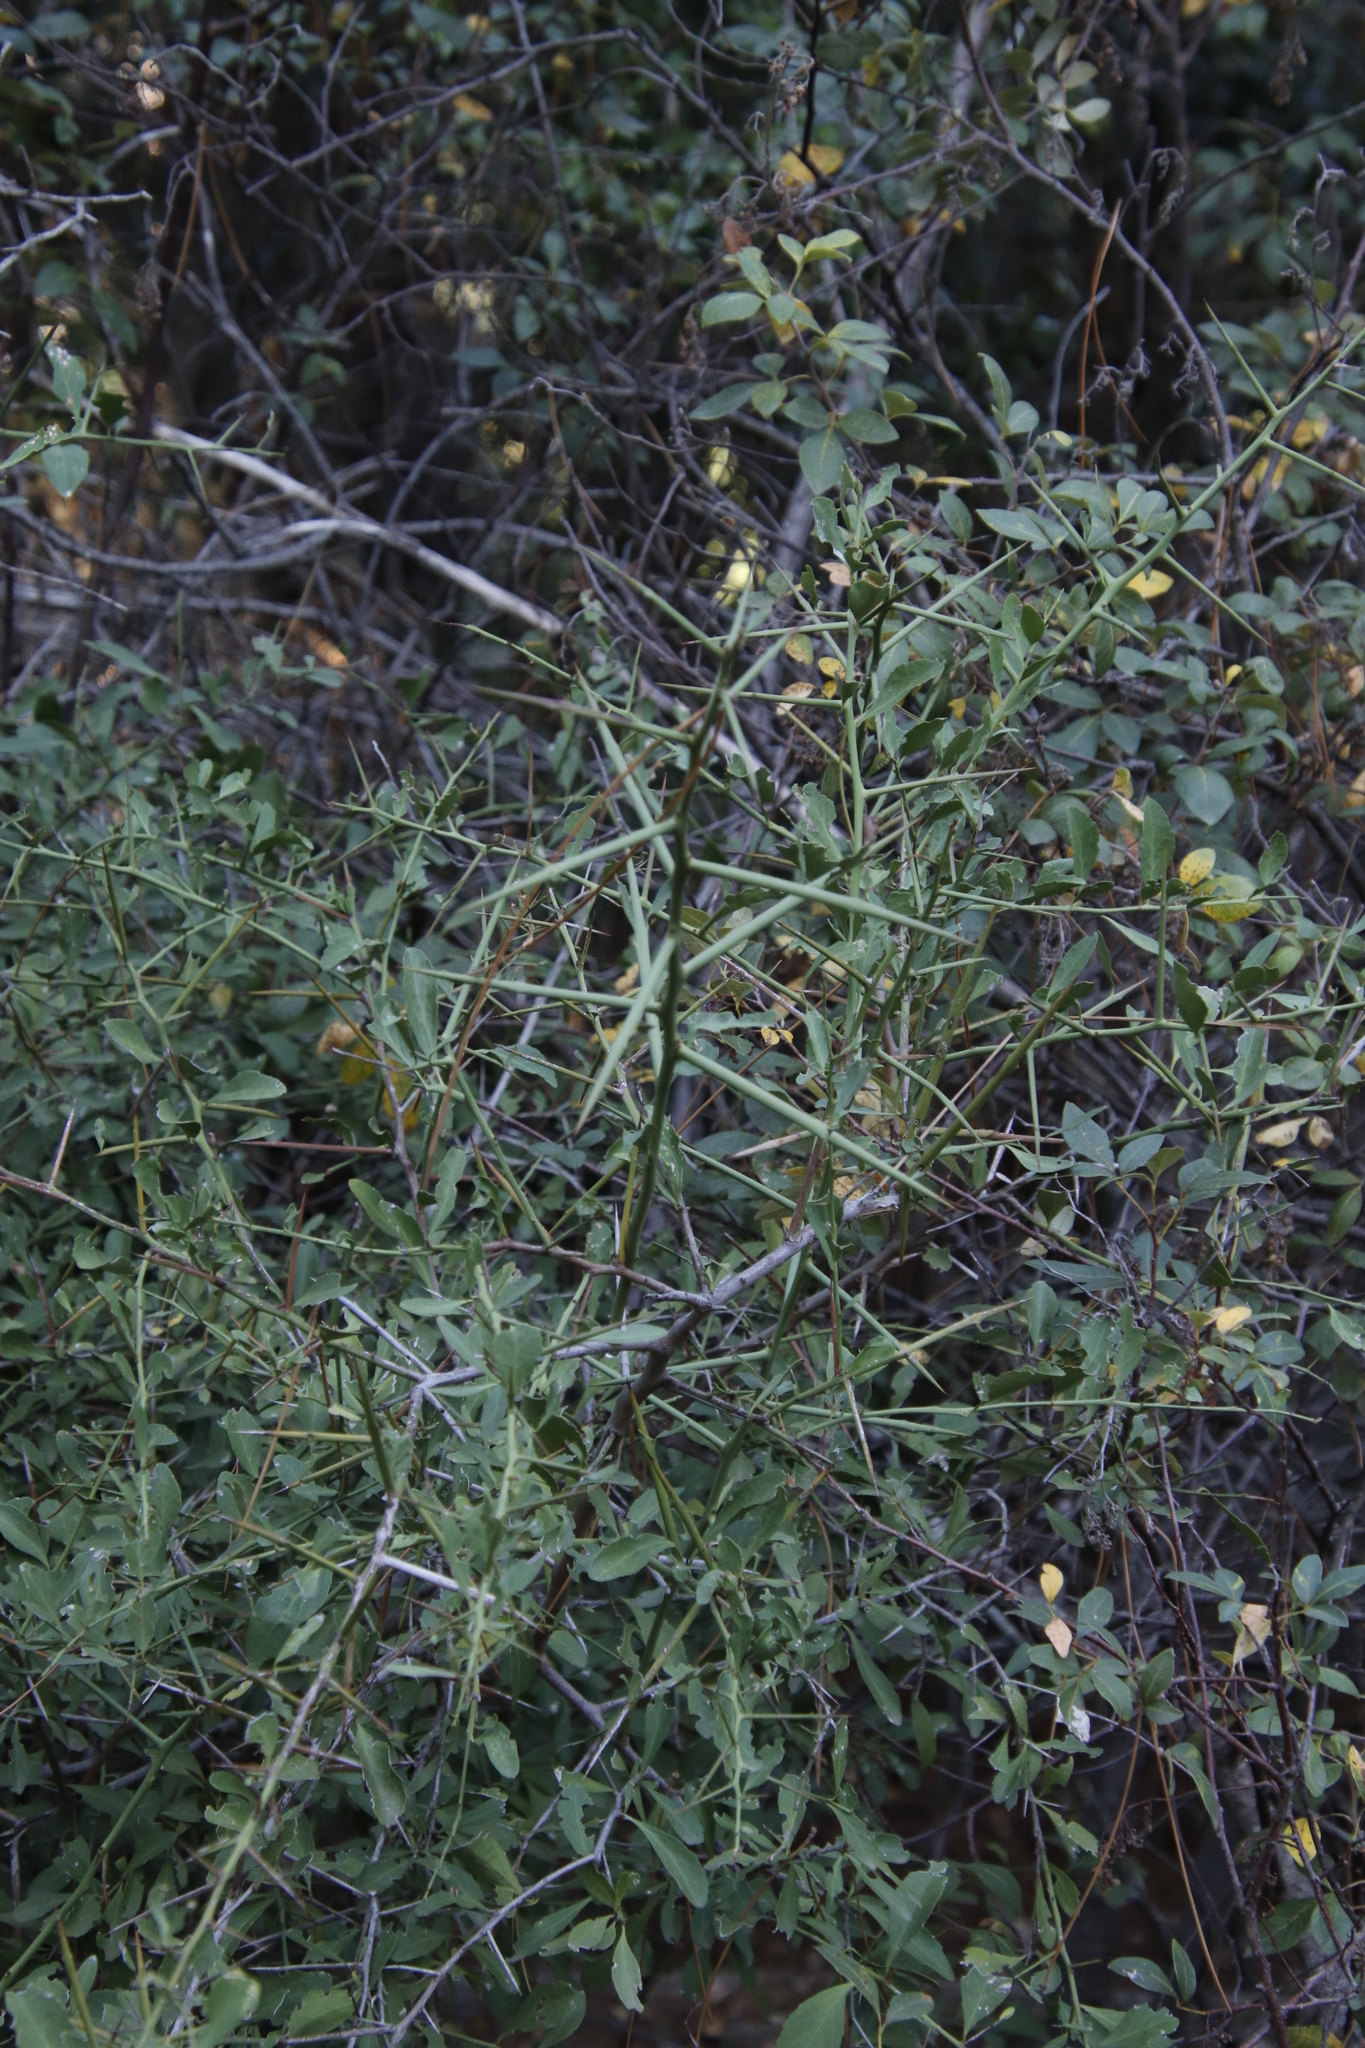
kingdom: Plantae
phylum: Tracheophyta
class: Magnoliopsida
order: Celastrales
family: Celastraceae
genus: Gymnosporia
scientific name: Gymnosporia buxifolia
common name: Common spike-thorn
